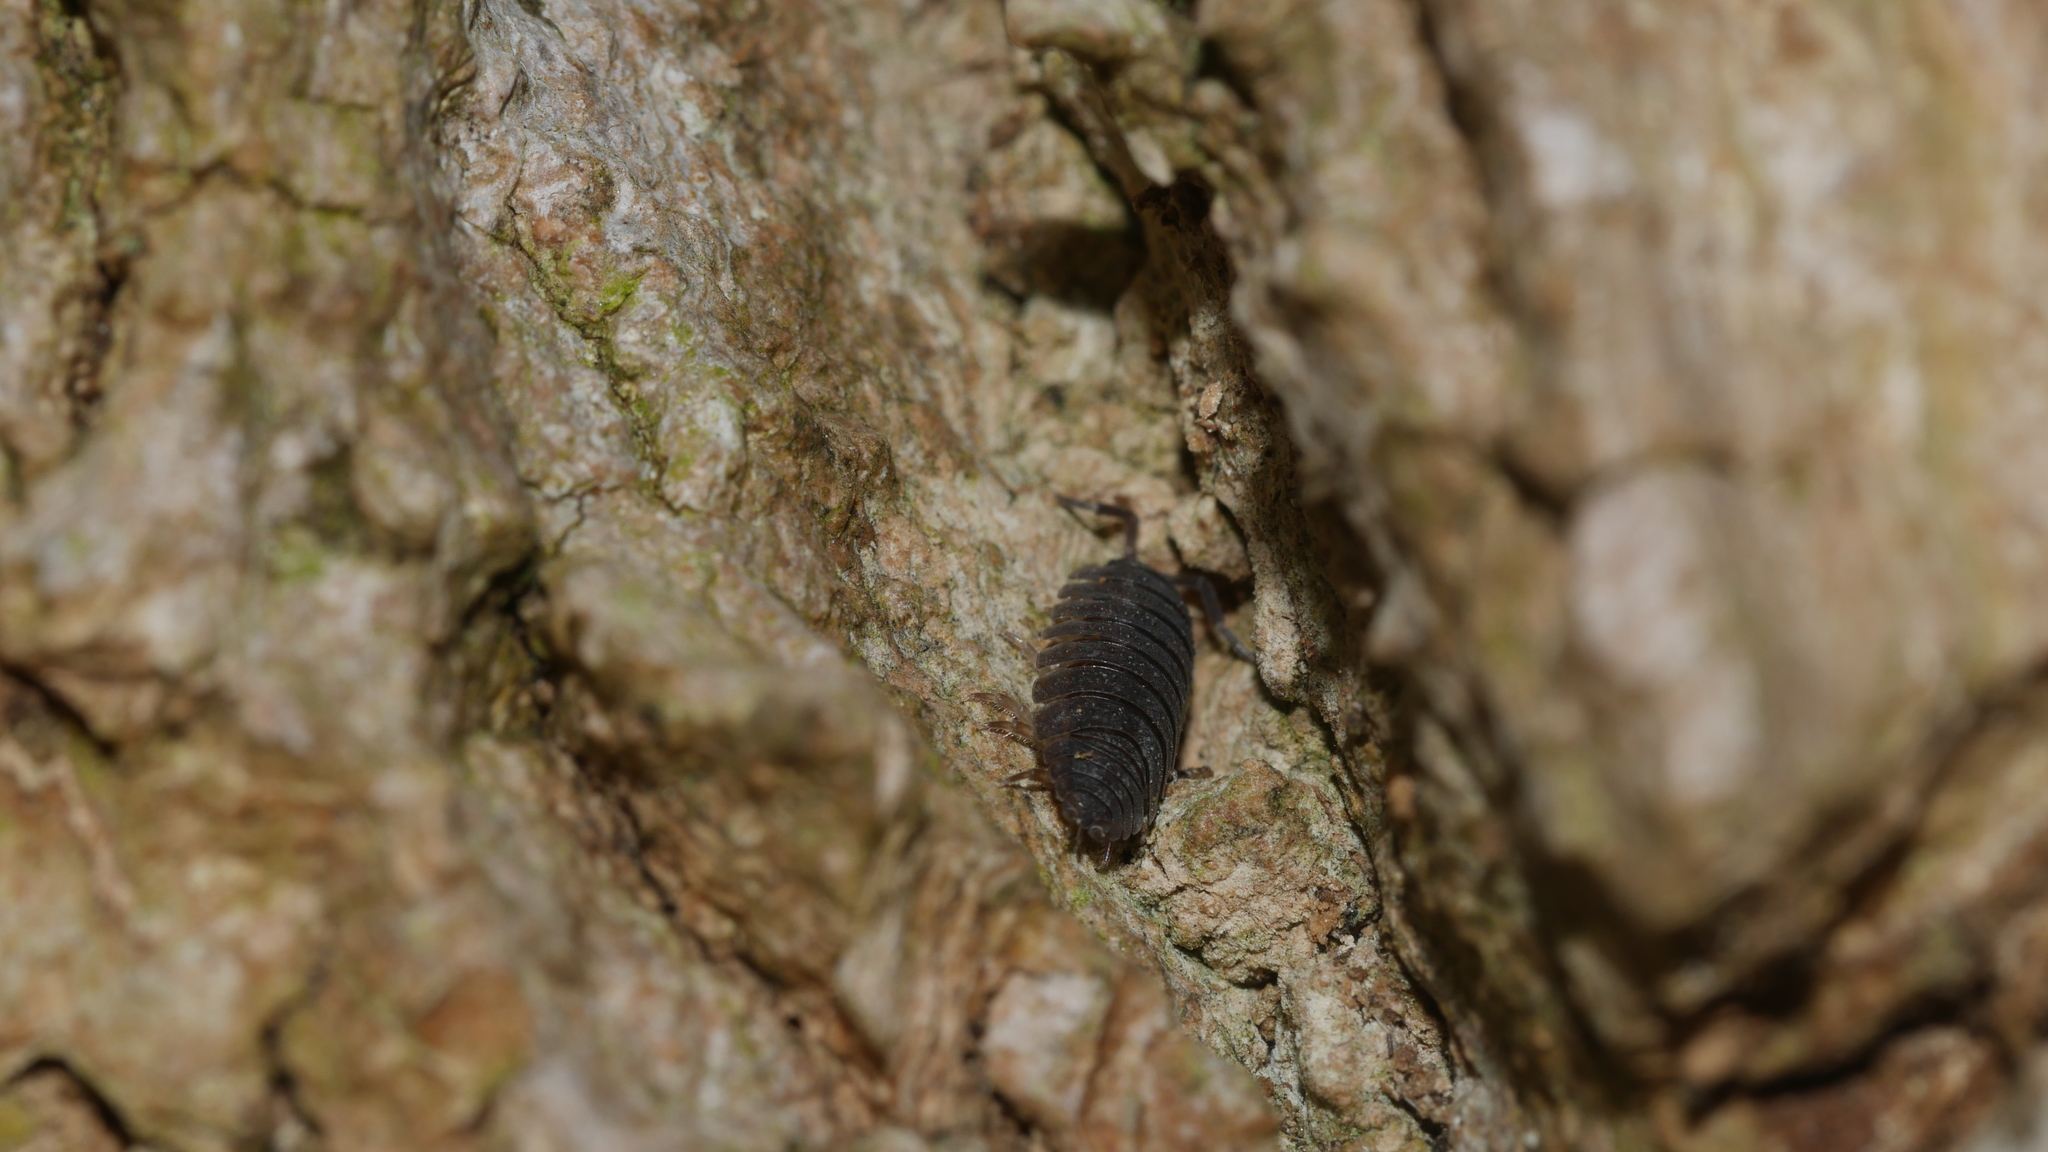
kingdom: Animalia
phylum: Arthropoda
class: Malacostraca
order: Isopoda
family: Porcellionidae
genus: Porcellio
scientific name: Porcellio scaber
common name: Common rough woodlouse
